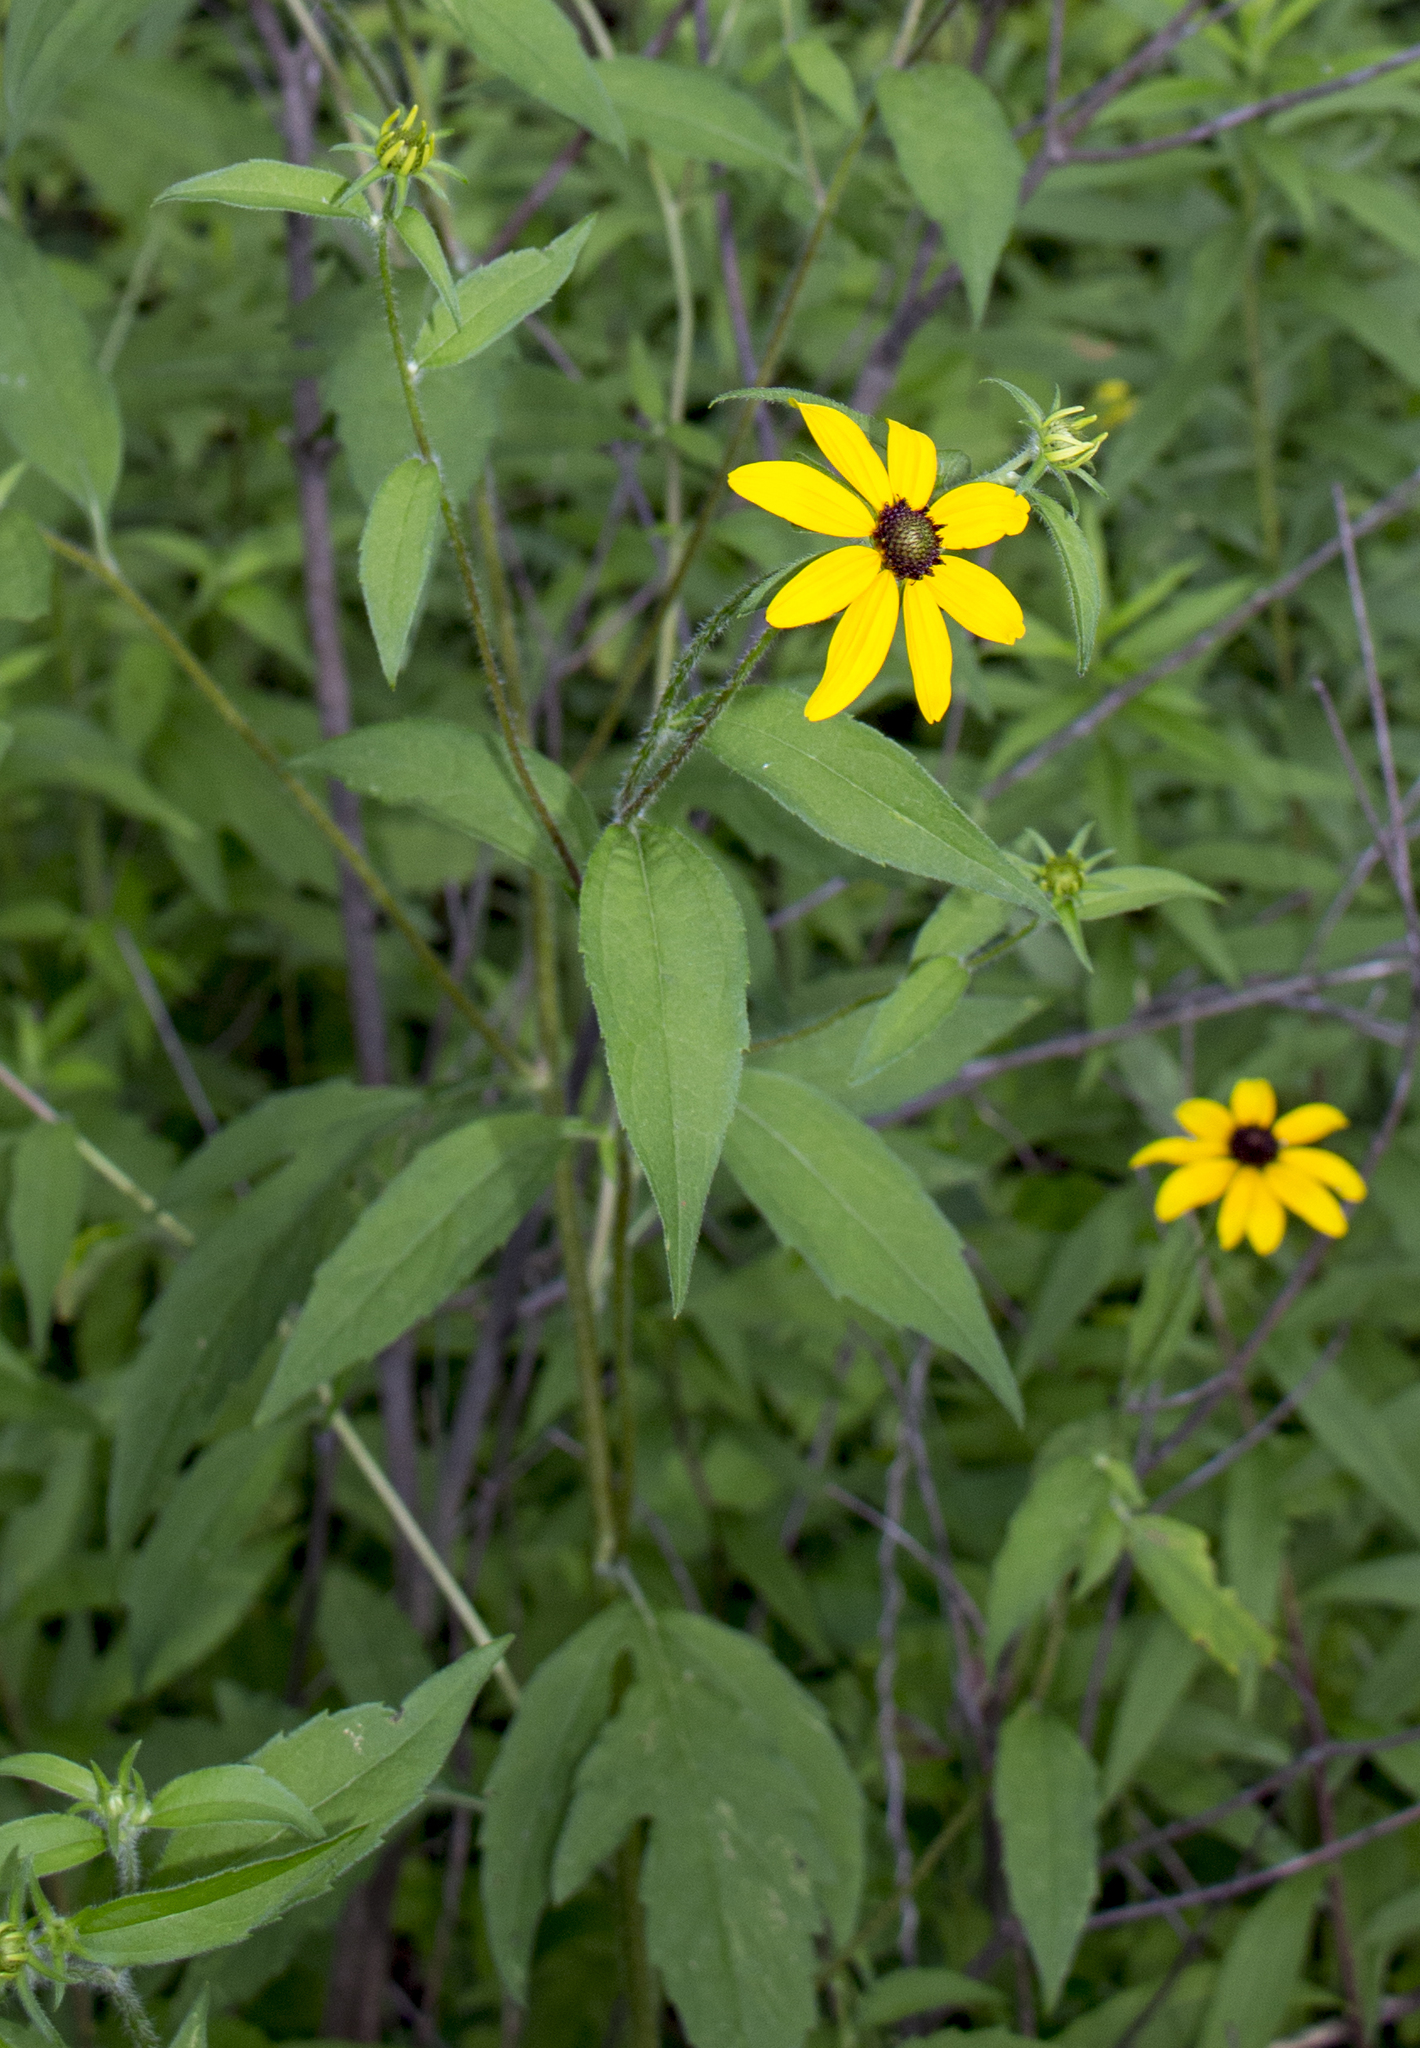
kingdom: Plantae
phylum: Tracheophyta
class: Magnoliopsida
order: Asterales
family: Asteraceae
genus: Rudbeckia
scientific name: Rudbeckia triloba
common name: Thin-leaved coneflower
